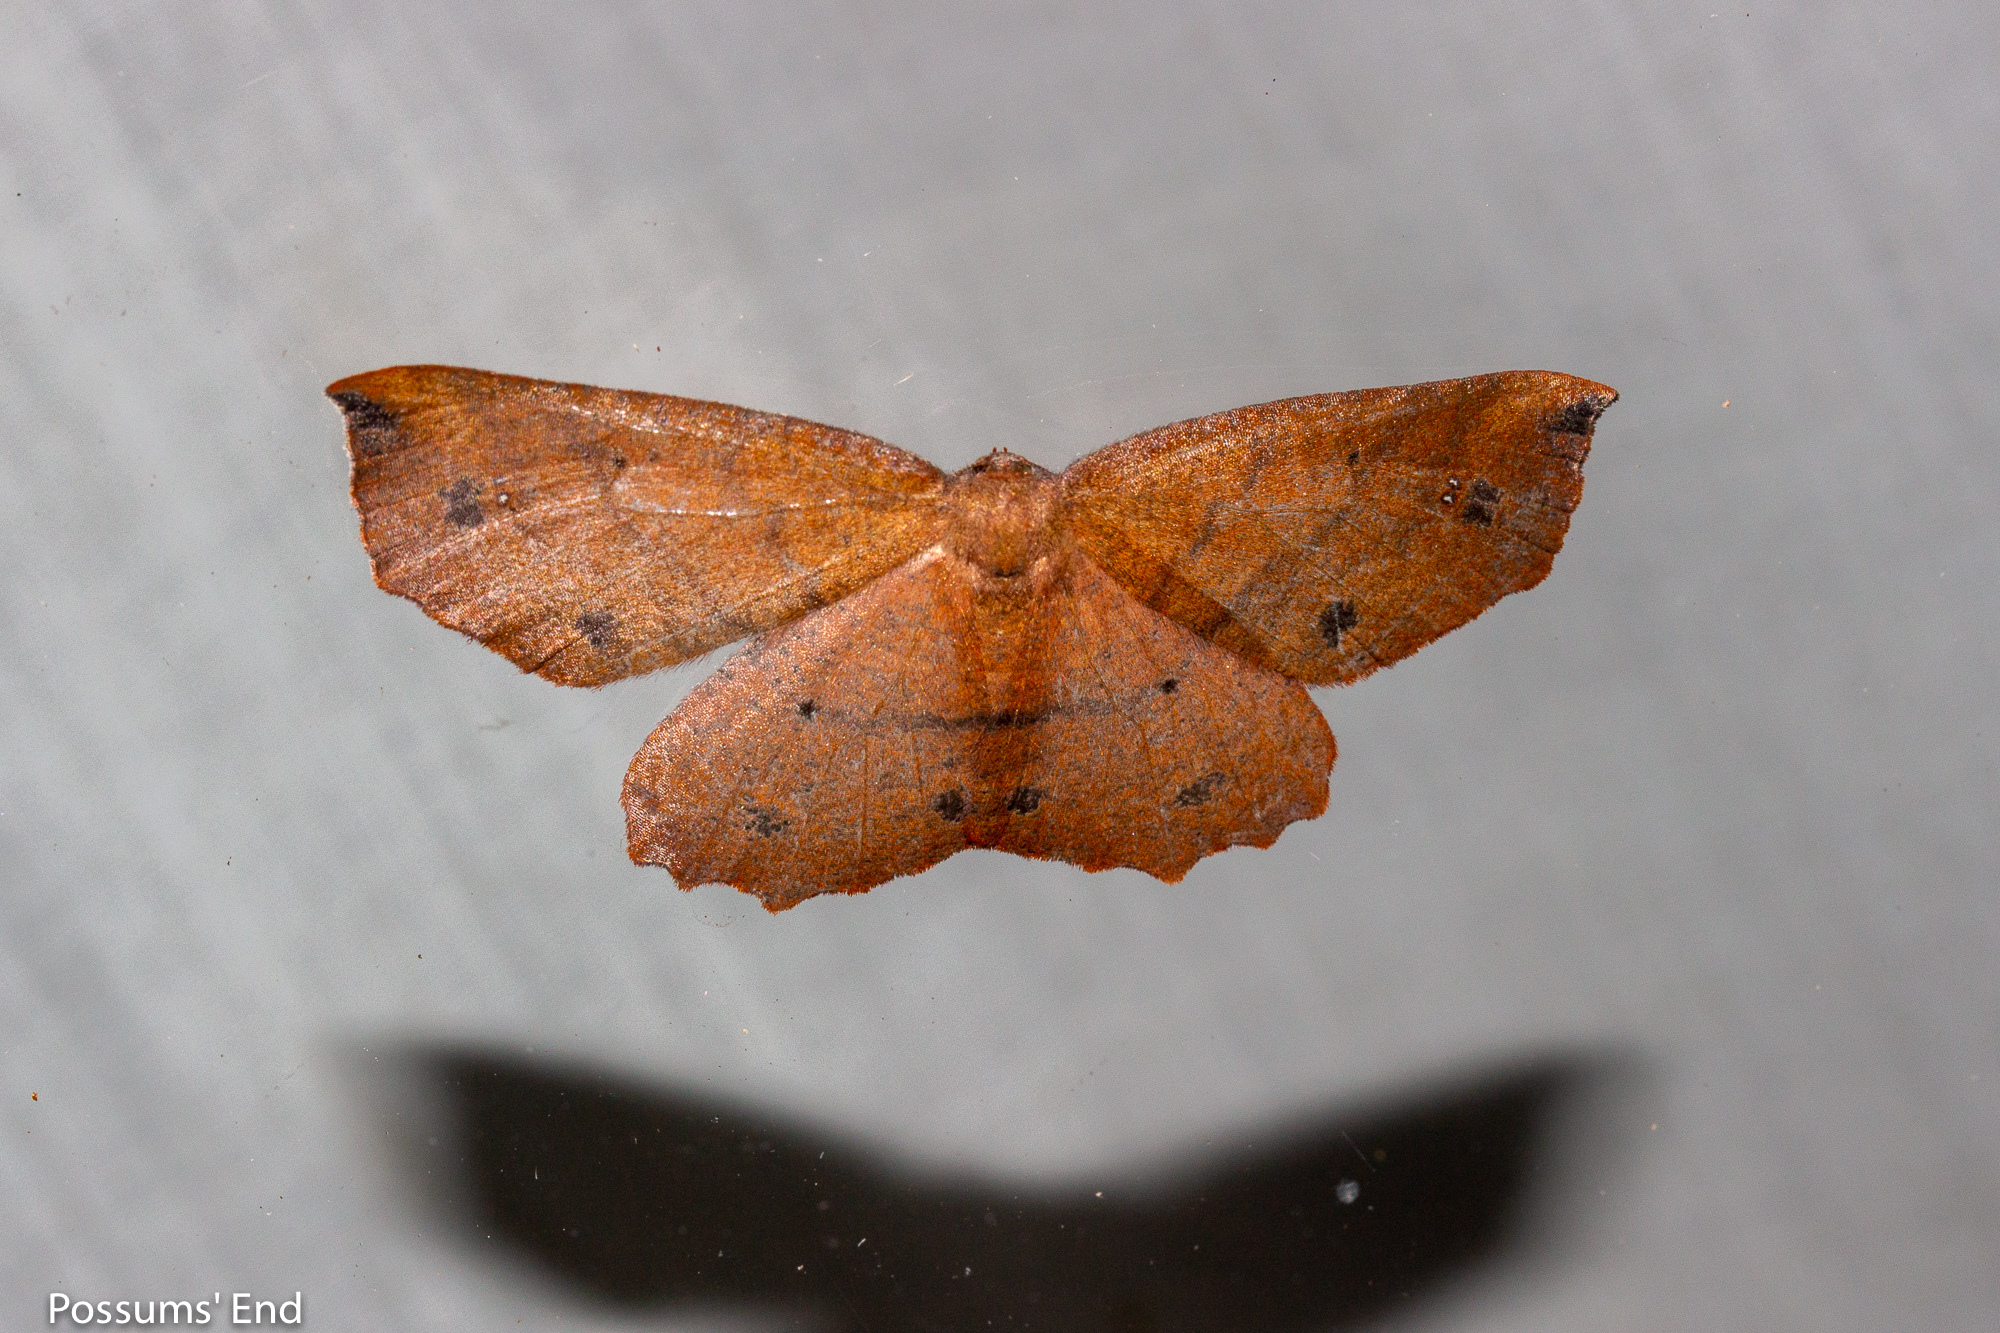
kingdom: Animalia
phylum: Arthropoda
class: Insecta
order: Lepidoptera
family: Geometridae
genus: Xyridacma
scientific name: Xyridacma ustaria
